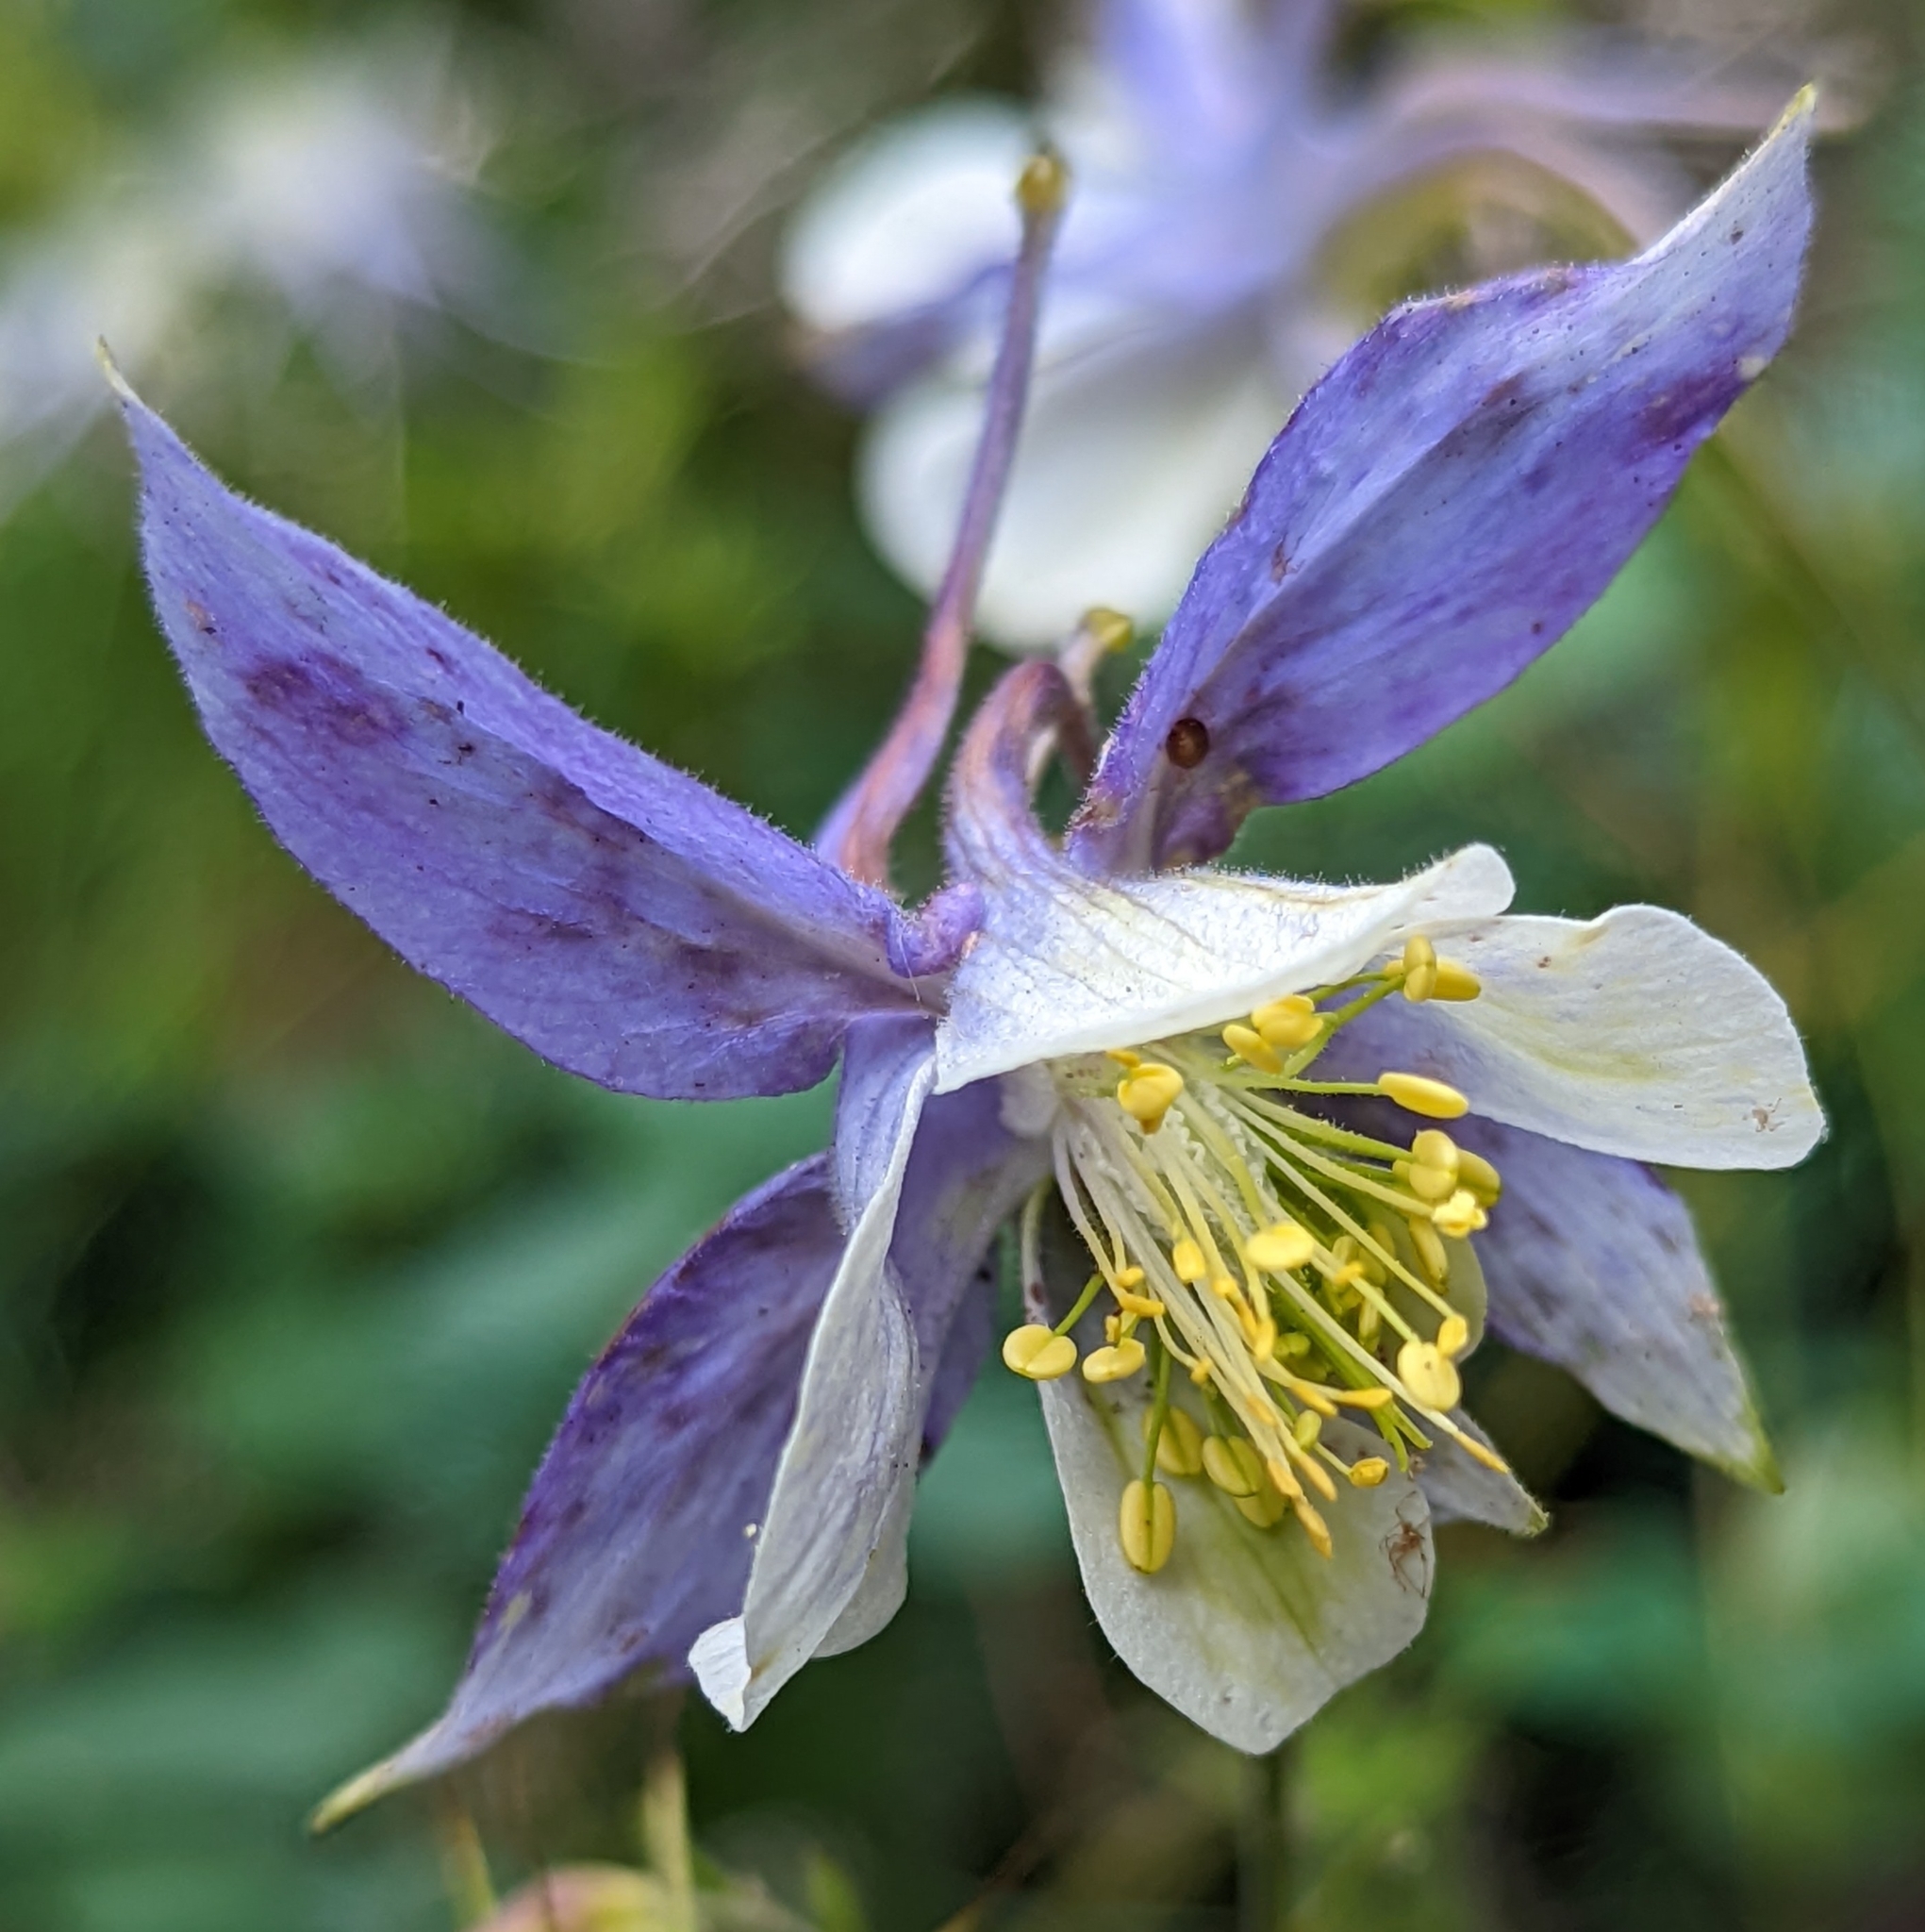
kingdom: Plantae
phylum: Tracheophyta
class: Magnoliopsida
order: Ranunculales
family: Ranunculaceae
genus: Aquilegia
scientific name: Aquilegia coerulea
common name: Rocky mountain columbine
